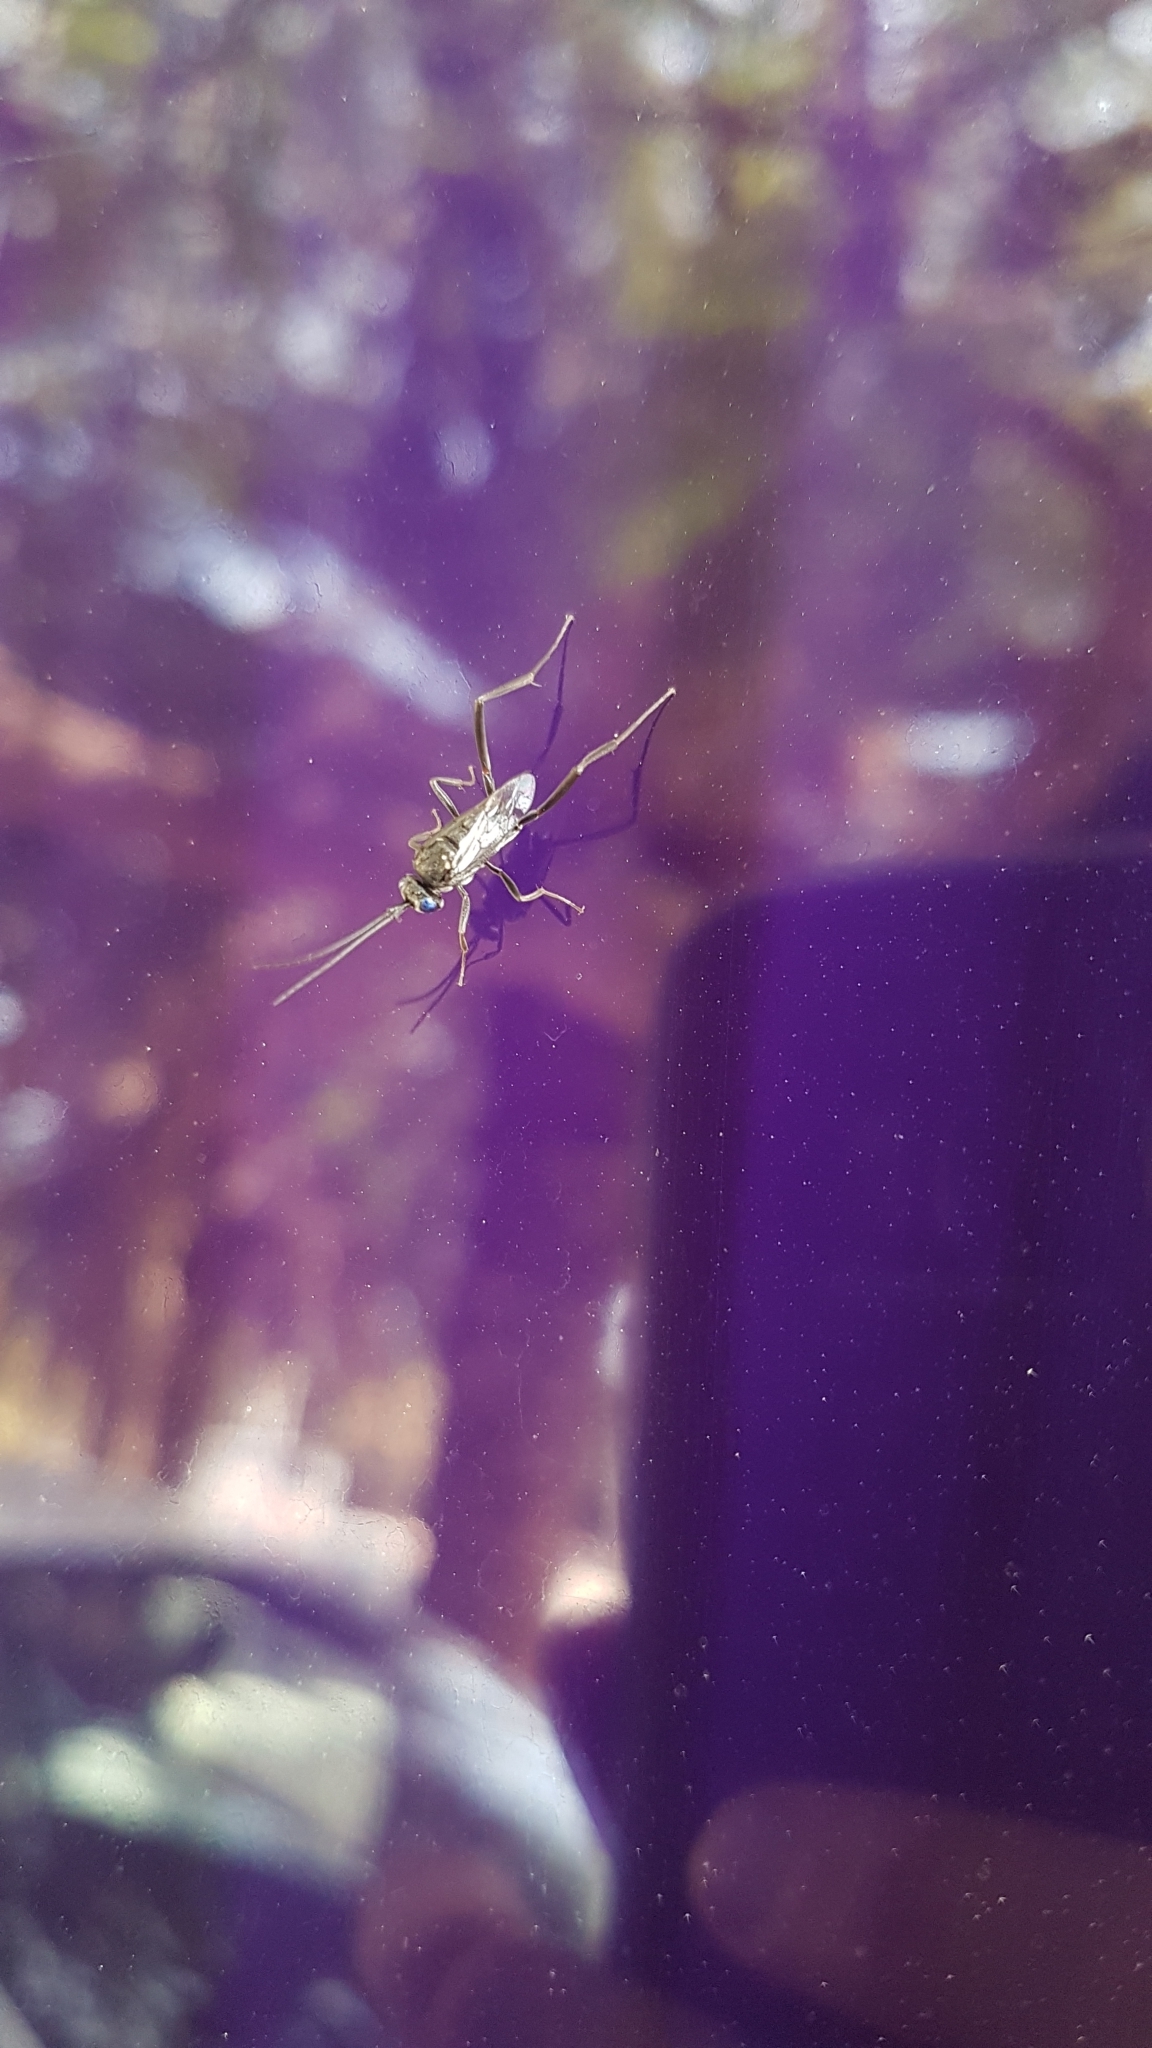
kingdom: Animalia
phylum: Arthropoda
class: Insecta
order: Hymenoptera
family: Evaniidae
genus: Evania
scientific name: Evania appendigaster
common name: Ensign wasp
